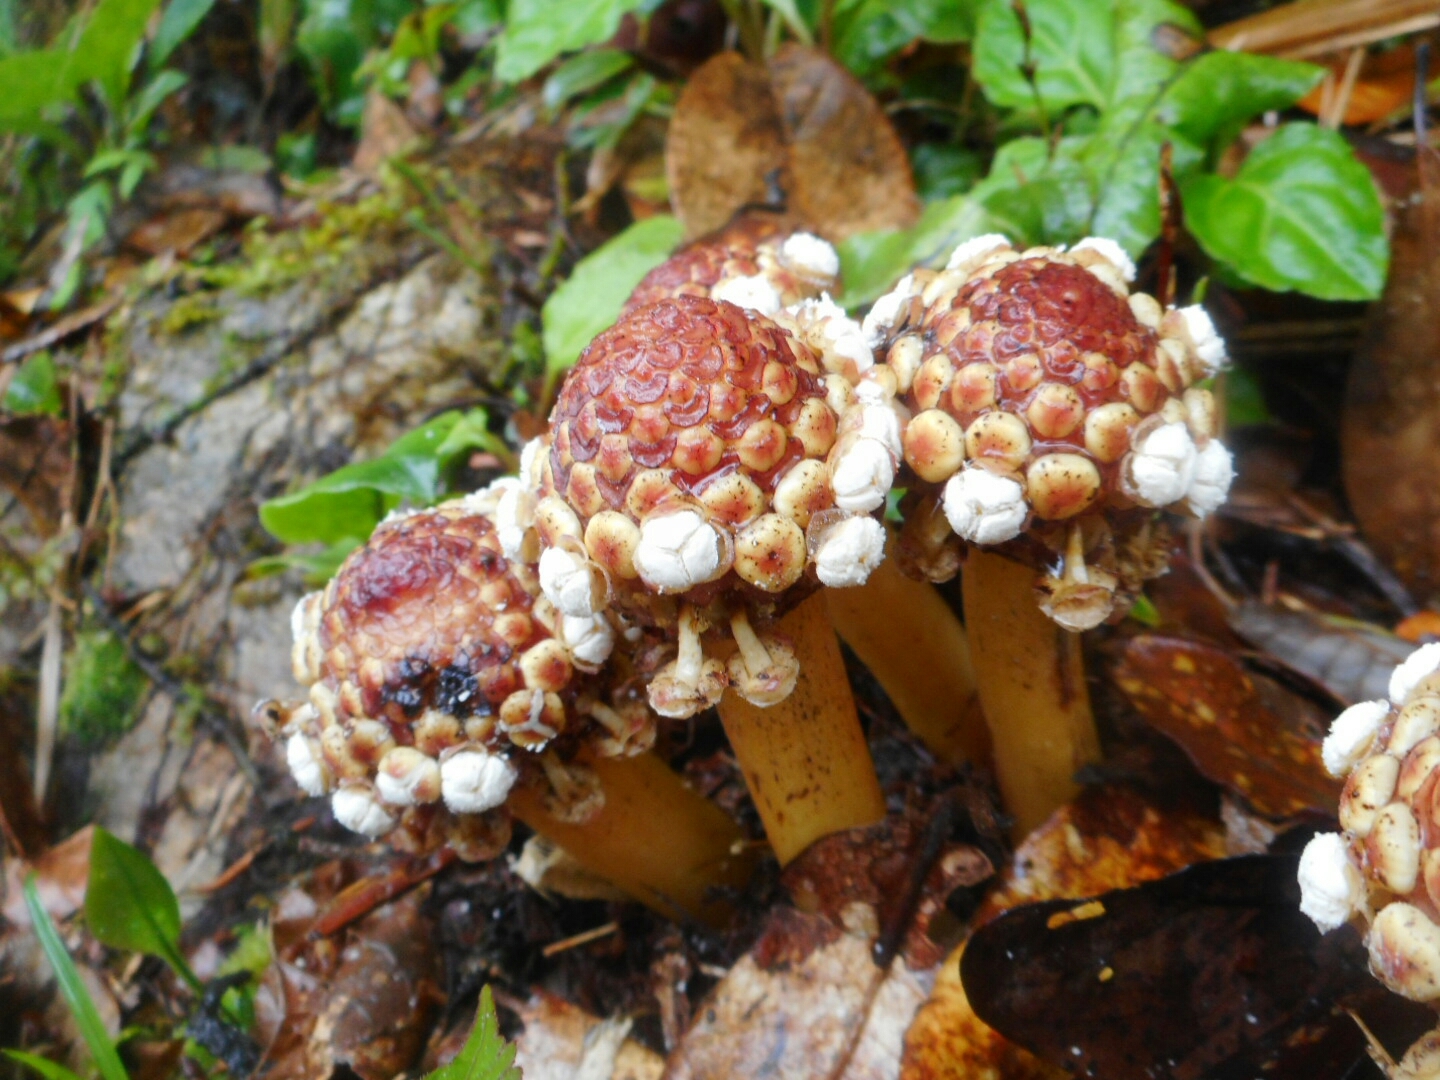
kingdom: Plantae
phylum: Tracheophyta
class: Magnoliopsida
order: Santalales
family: Balanophoraceae
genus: Balanophora
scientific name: Balanophora harlandii
